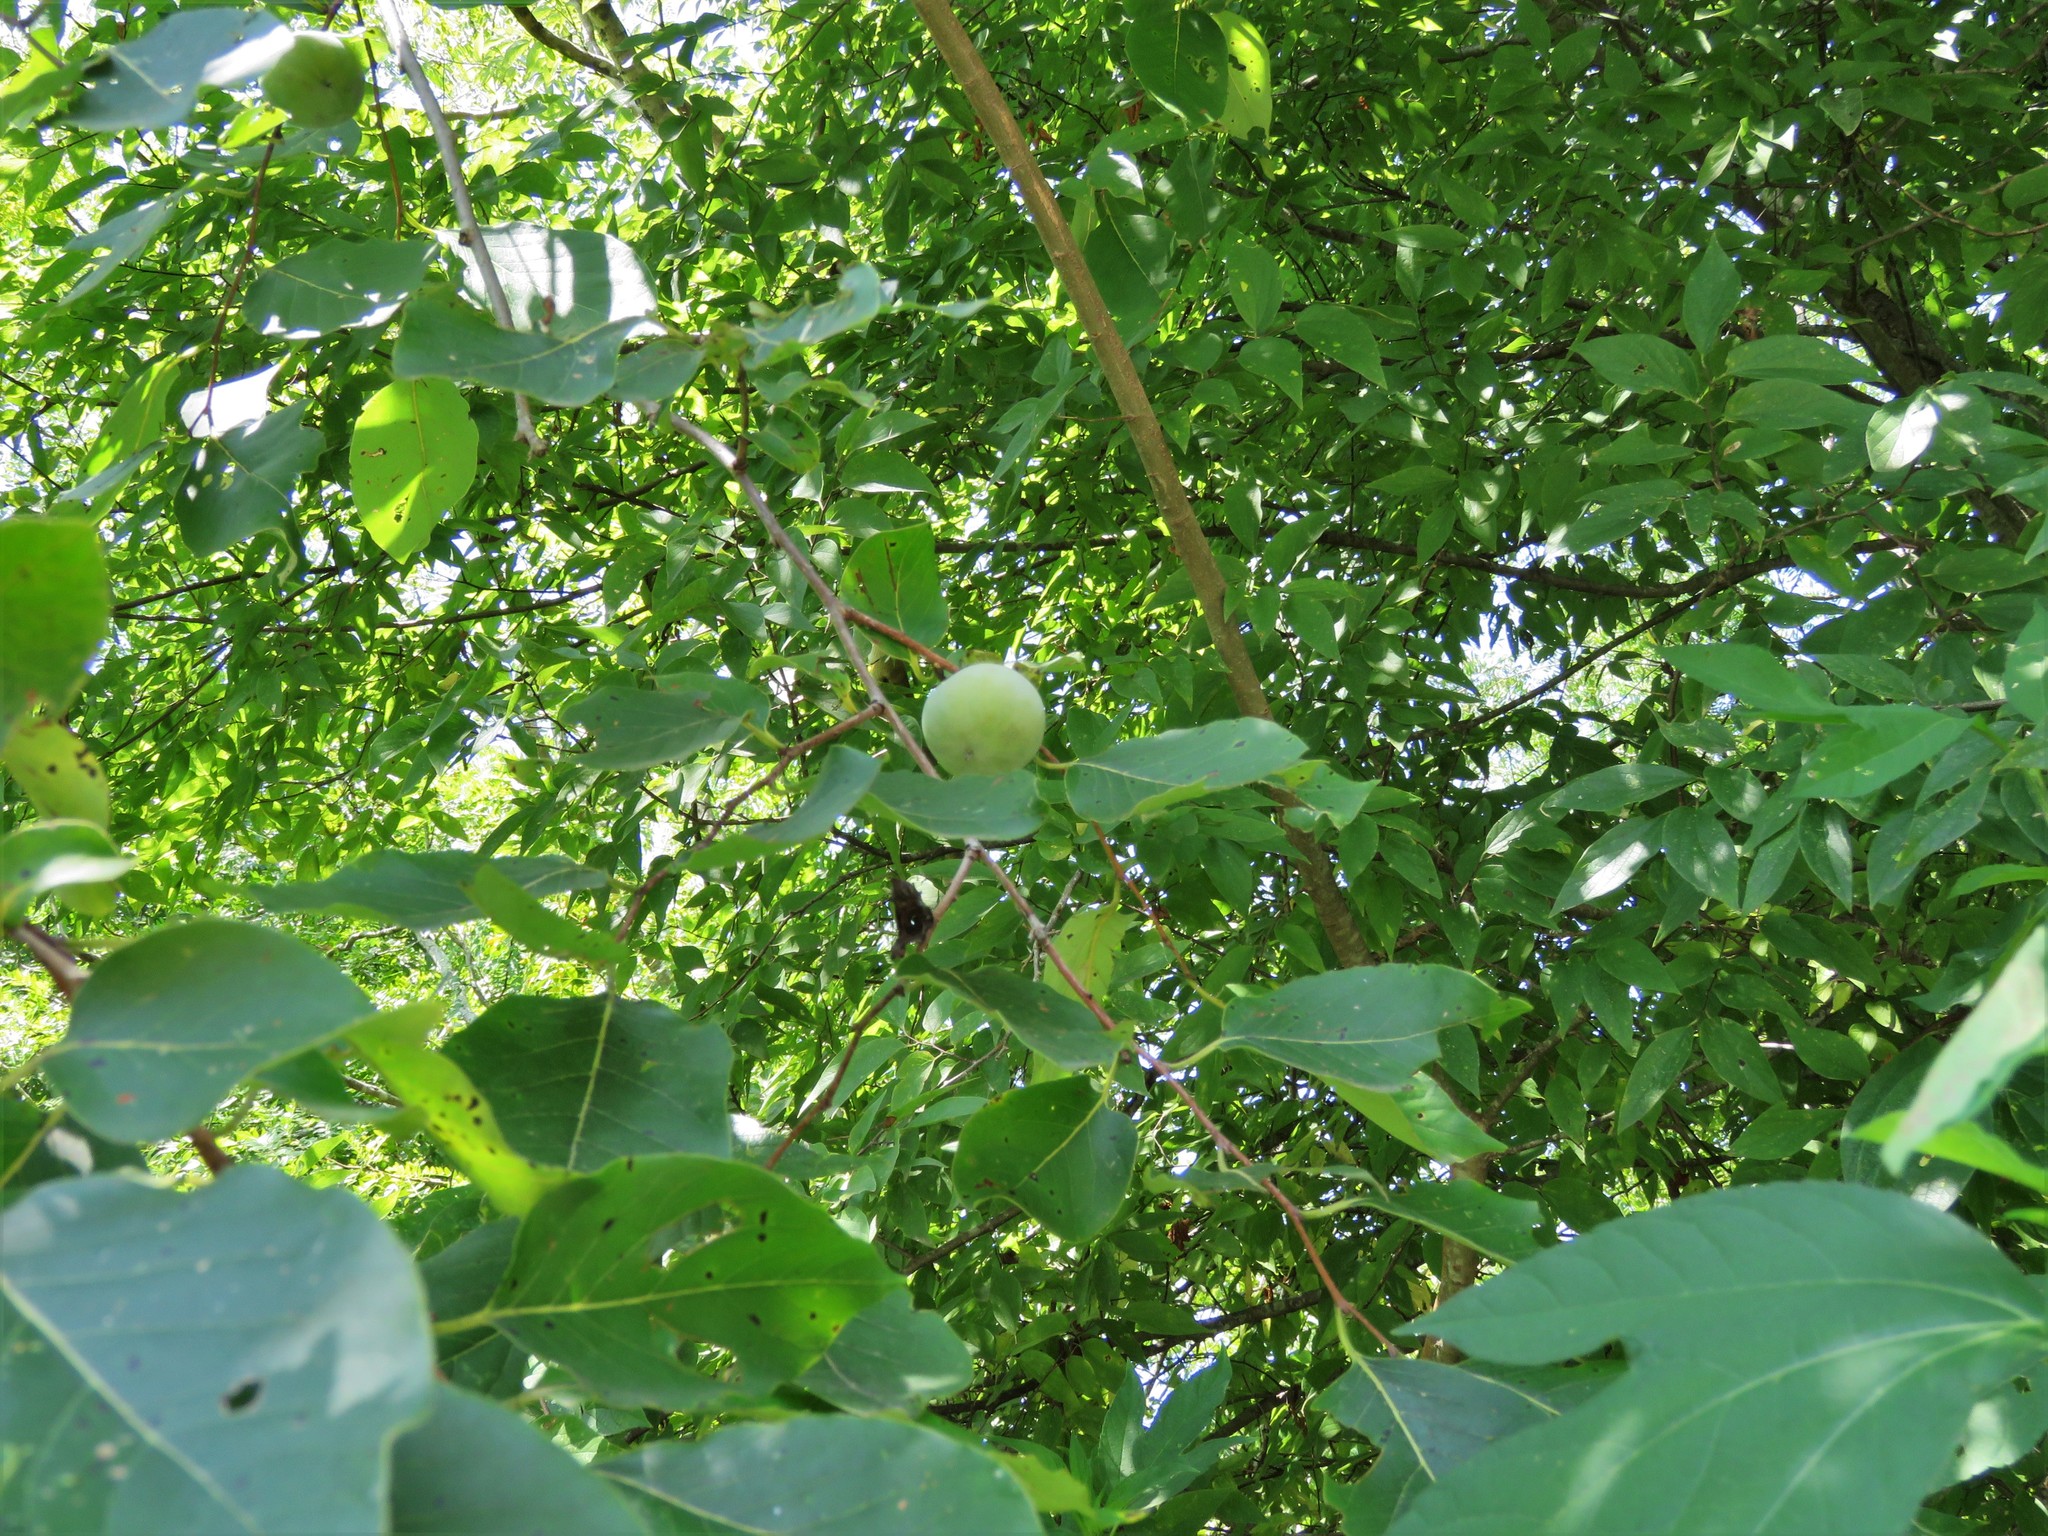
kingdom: Plantae
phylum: Tracheophyta
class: Magnoliopsida
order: Ericales
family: Ebenaceae
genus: Diospyros
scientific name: Diospyros virginiana
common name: Persimmon
